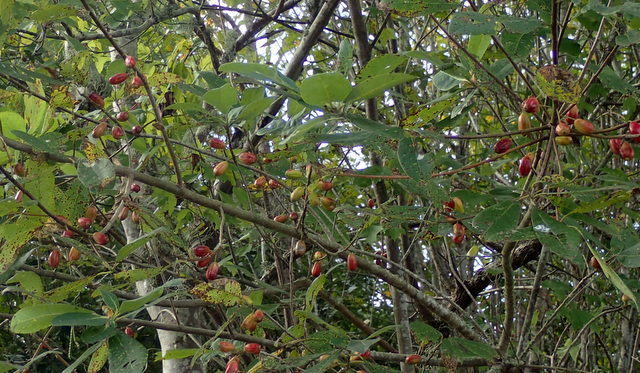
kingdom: Plantae
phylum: Tracheophyta
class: Magnoliopsida
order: Cornales
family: Nyssaceae
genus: Nyssa
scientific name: Nyssa ogeche
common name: Ogeechee tupelo
